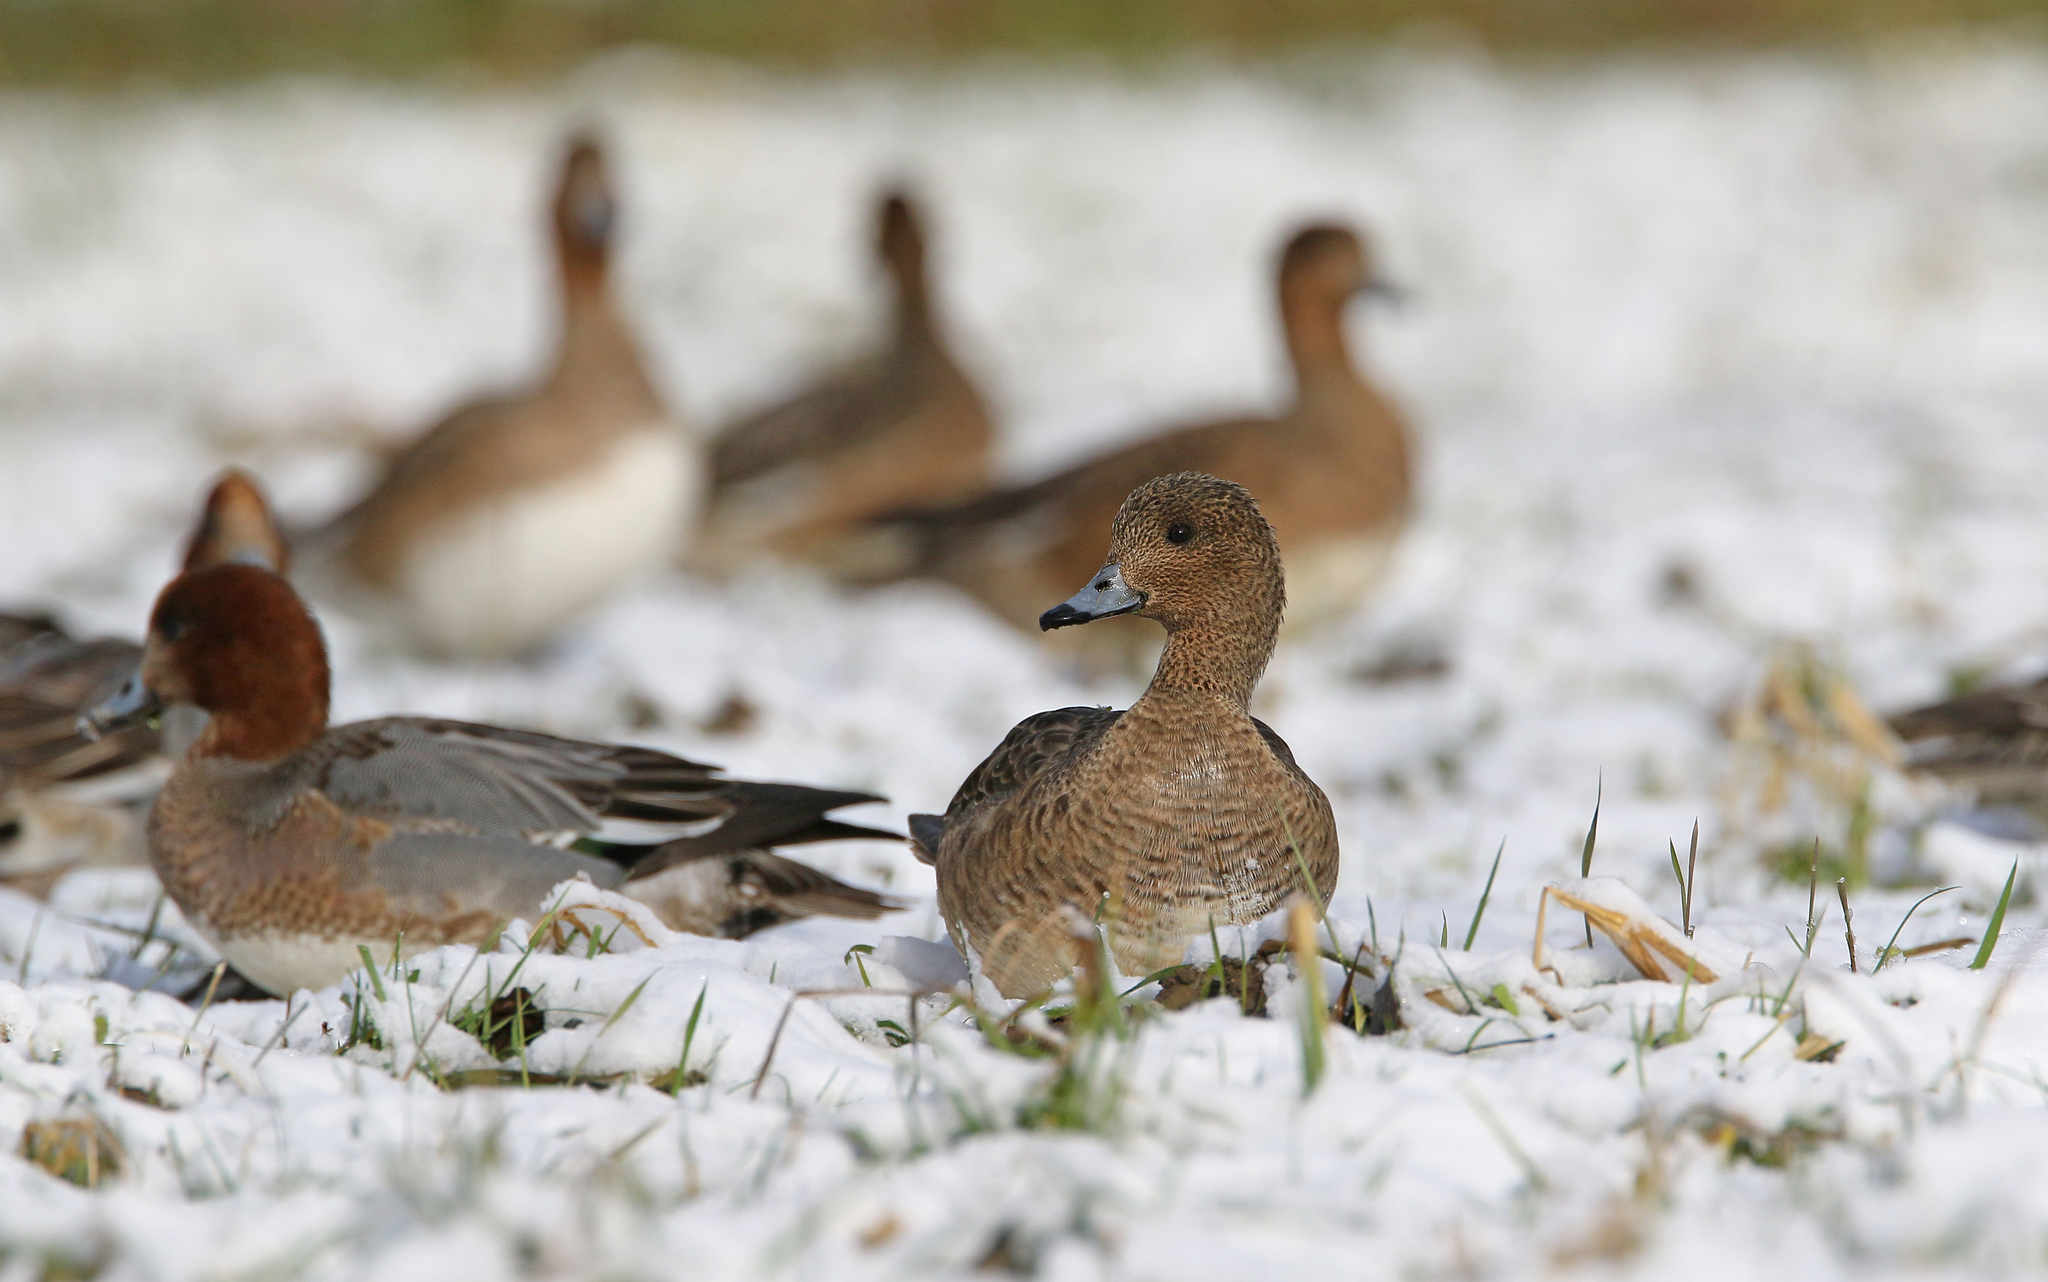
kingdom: Animalia
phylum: Chordata
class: Aves
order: Anseriformes
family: Anatidae
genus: Mareca
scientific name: Mareca penelope
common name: Eurasian wigeon
